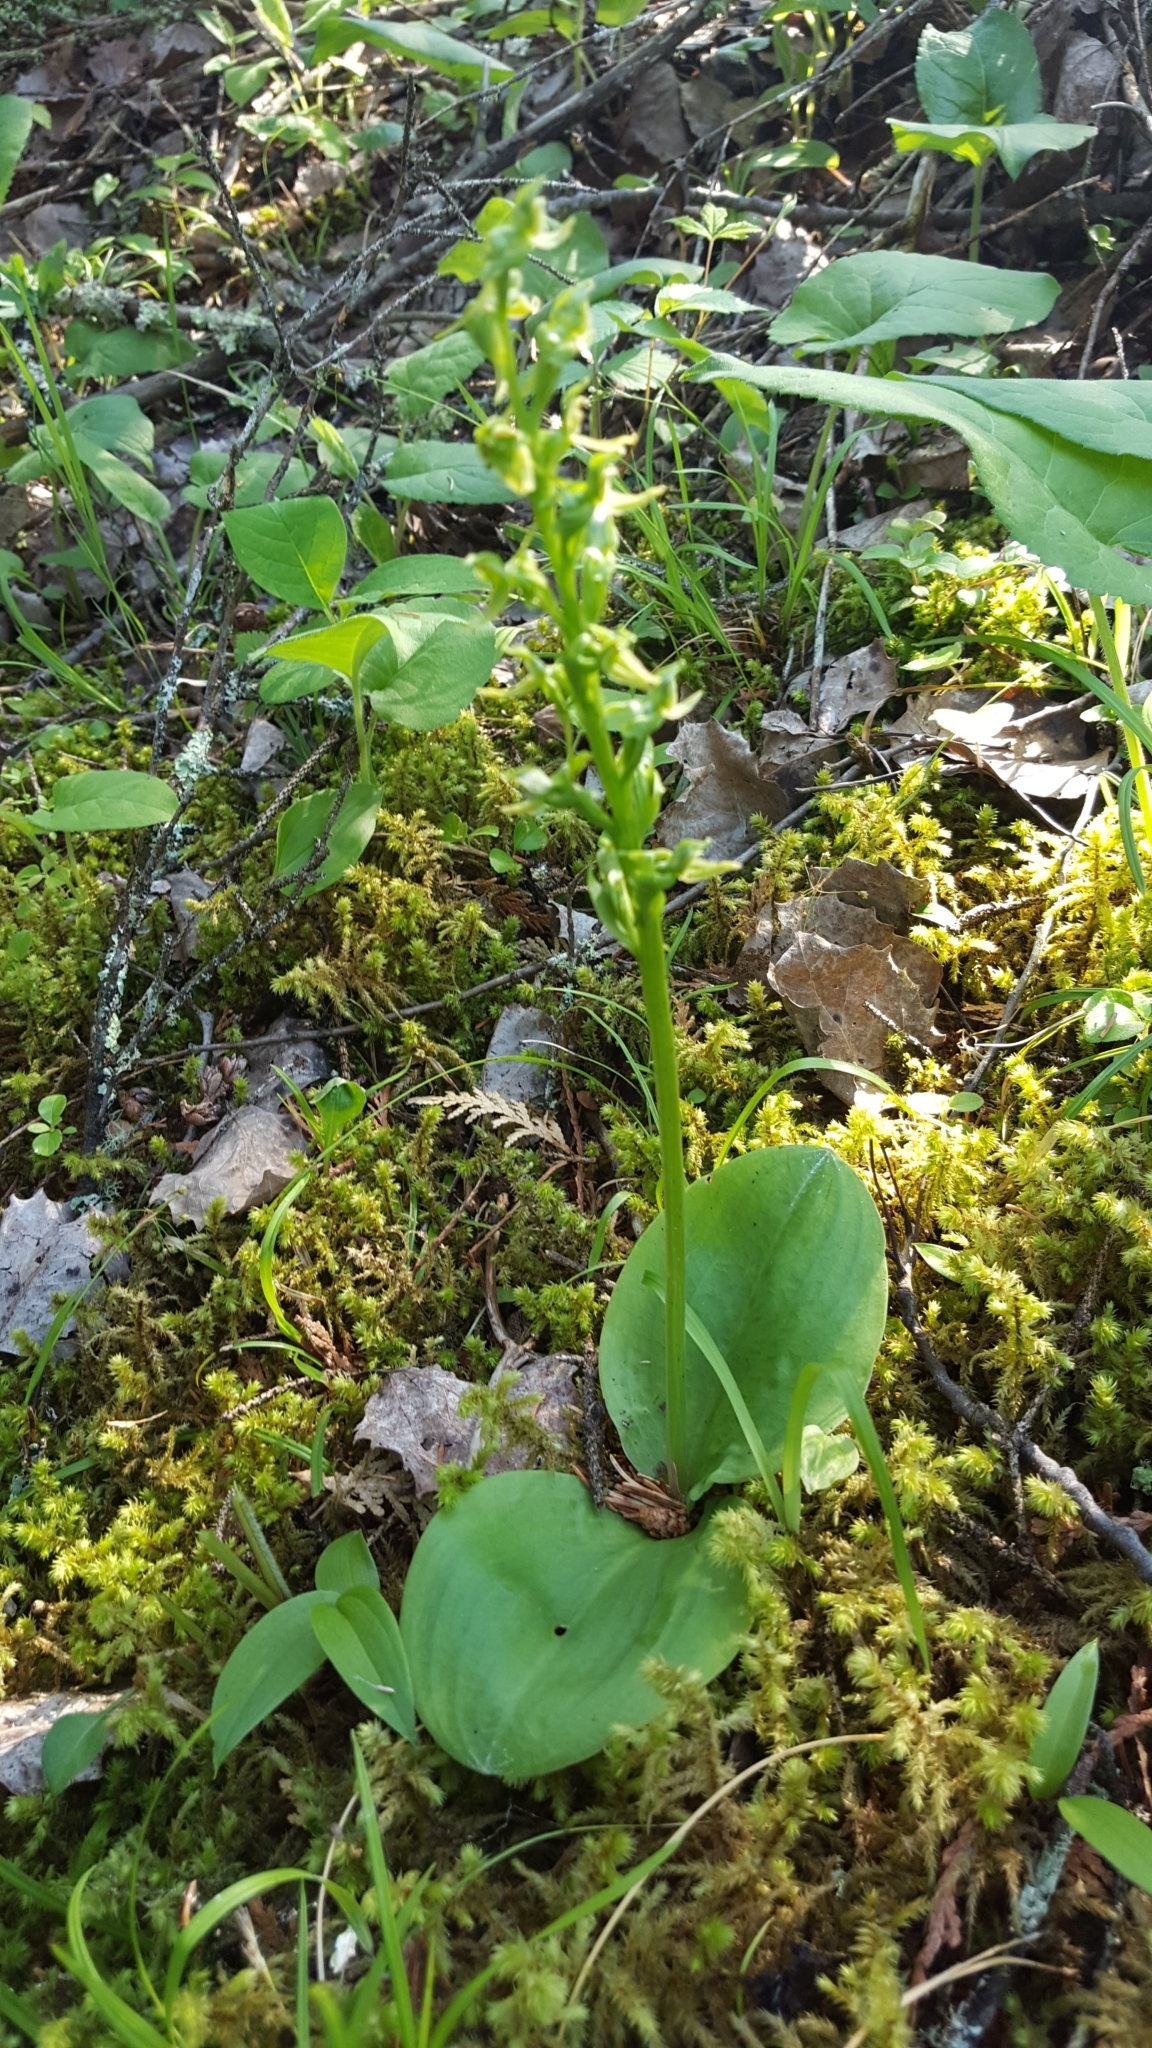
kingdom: Plantae
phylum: Tracheophyta
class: Liliopsida
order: Asparagales
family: Orchidaceae
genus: Platanthera
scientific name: Platanthera hookeri
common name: Hooker's orchid
